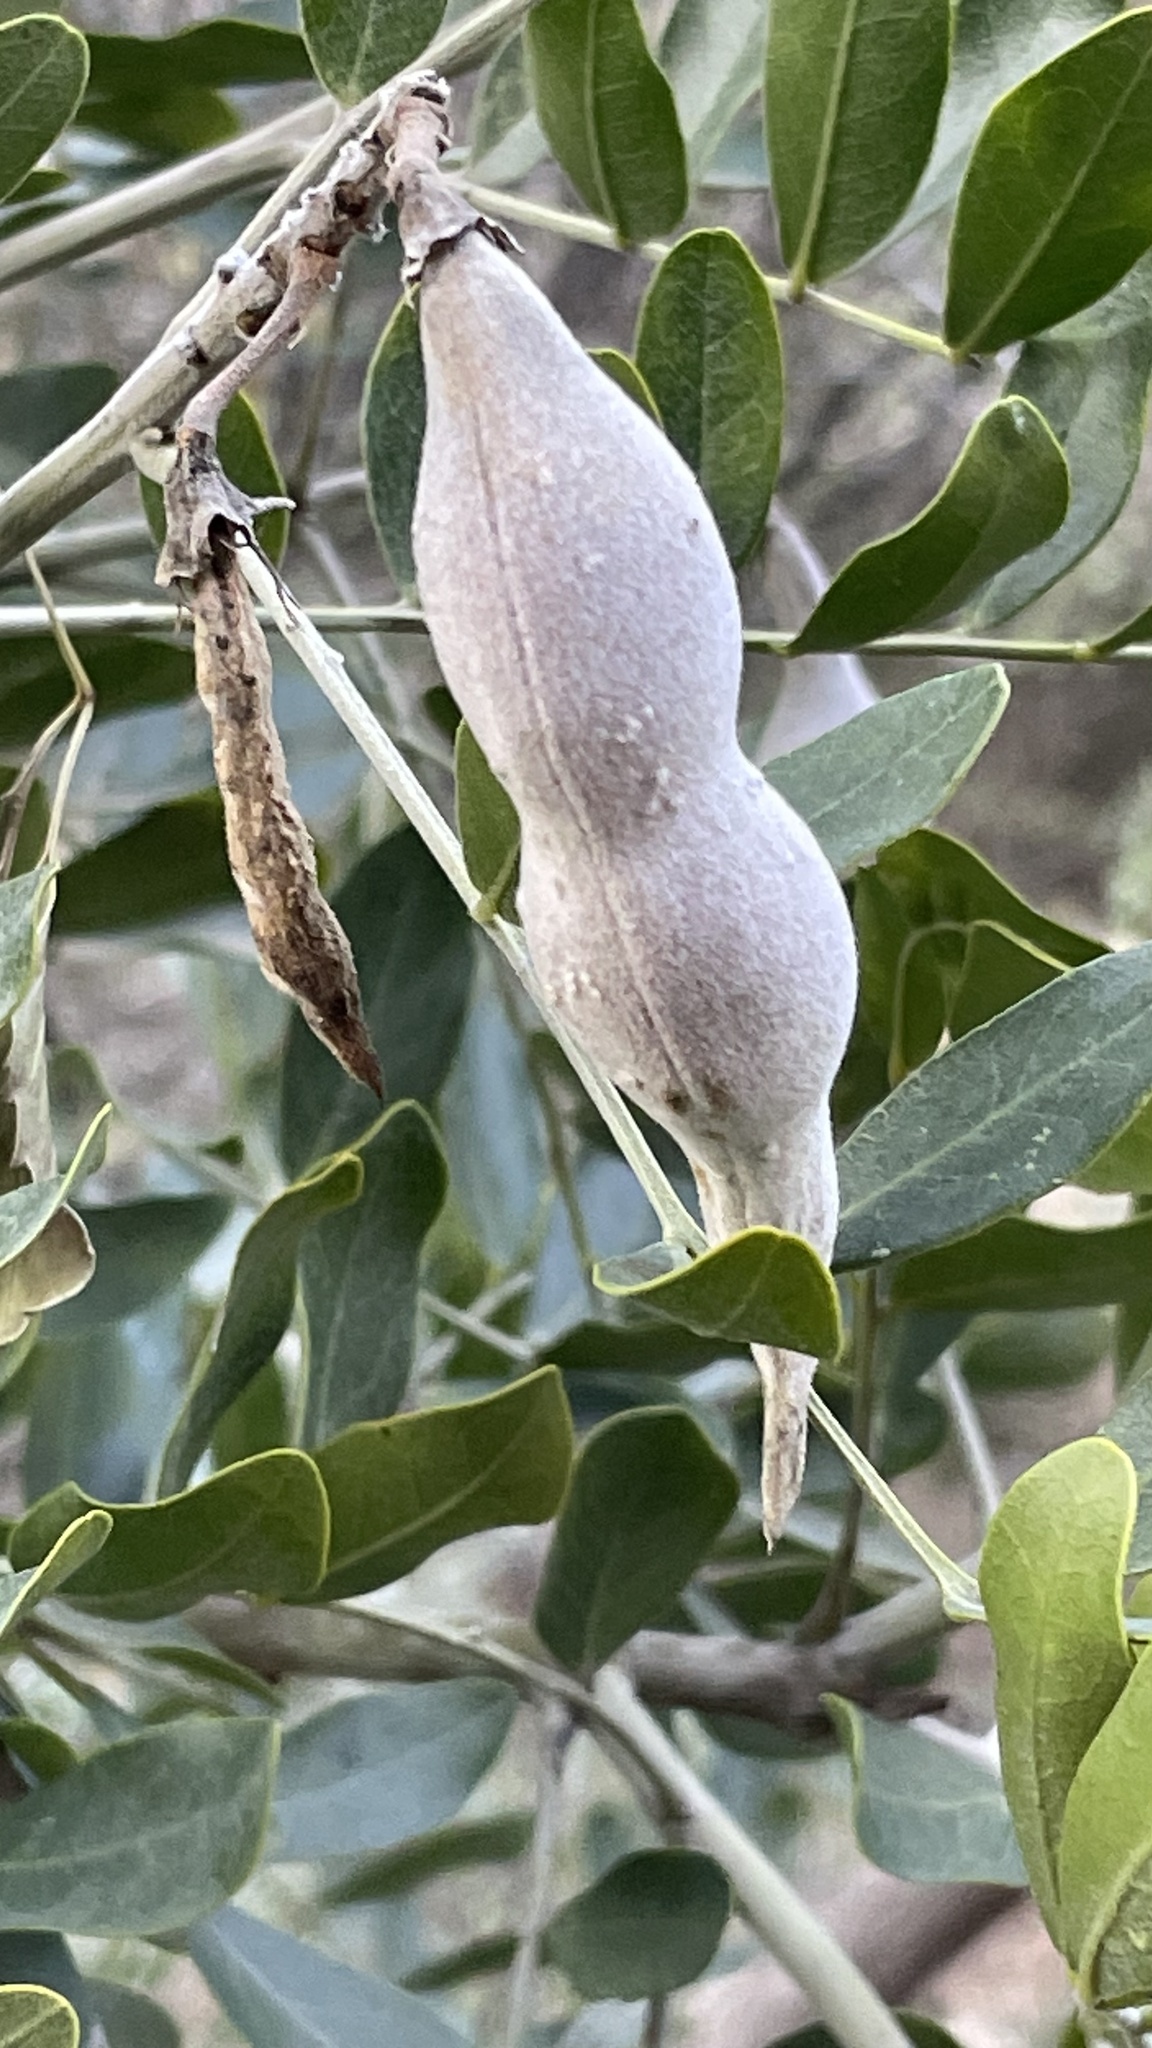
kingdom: Plantae
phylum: Tracheophyta
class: Magnoliopsida
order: Fabales
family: Fabaceae
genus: Dermatophyllum
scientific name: Dermatophyllum secundiflorum
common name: Texas-mountain-laurel
